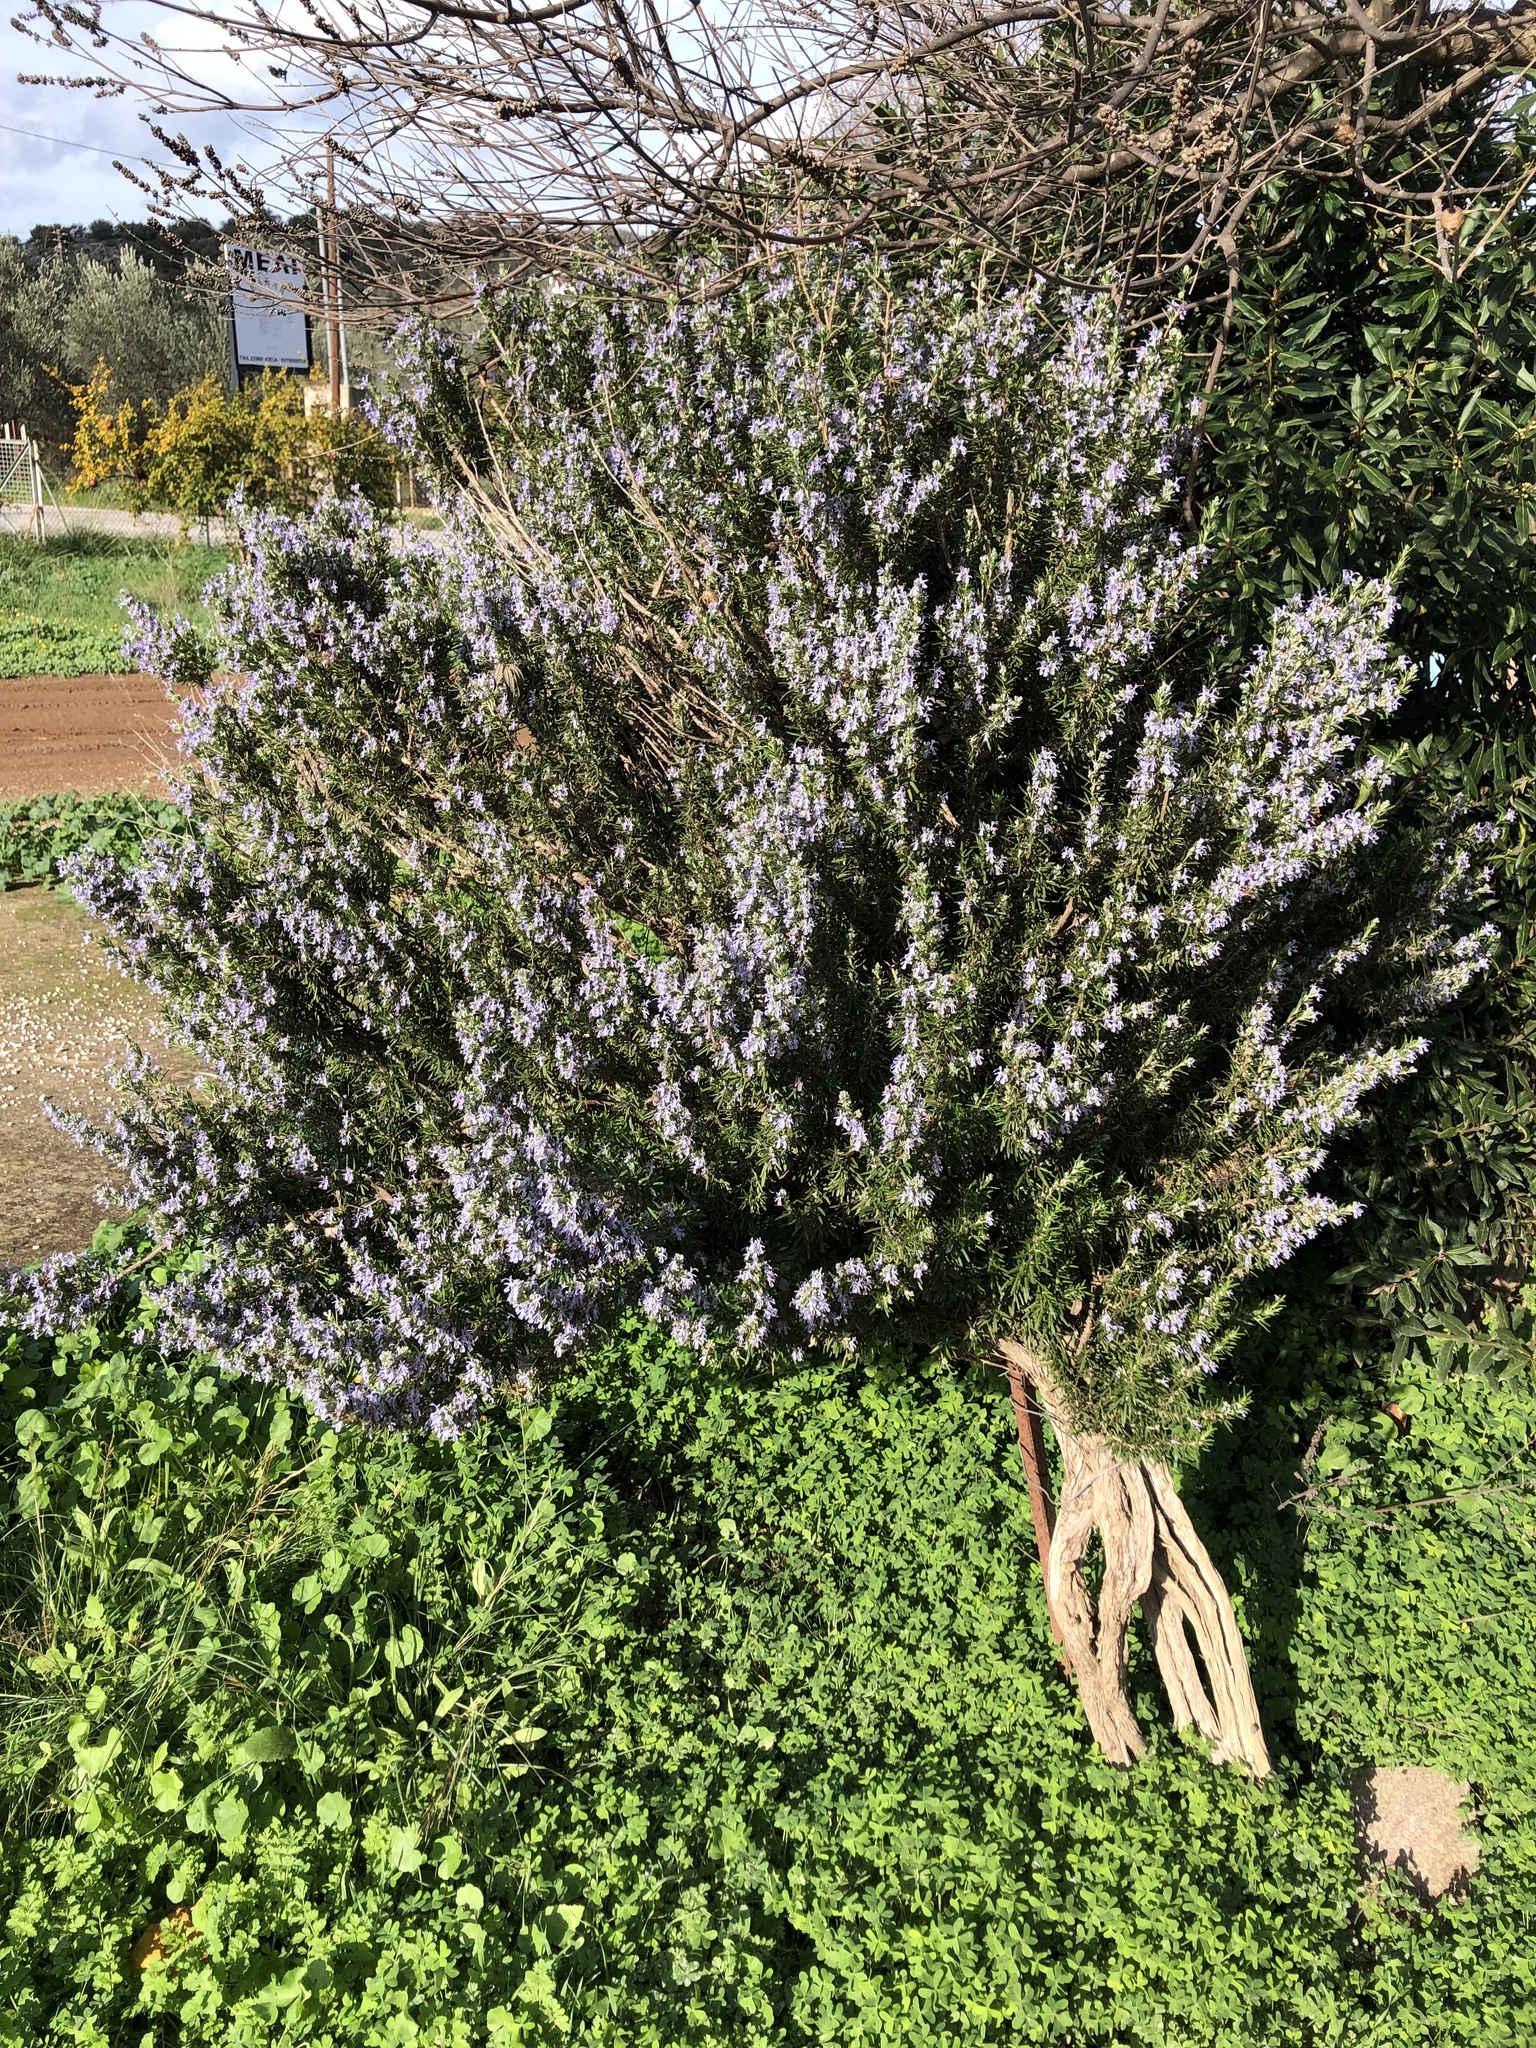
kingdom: Plantae
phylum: Tracheophyta
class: Magnoliopsida
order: Lamiales
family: Lamiaceae
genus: Salvia
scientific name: Salvia rosmarinus
